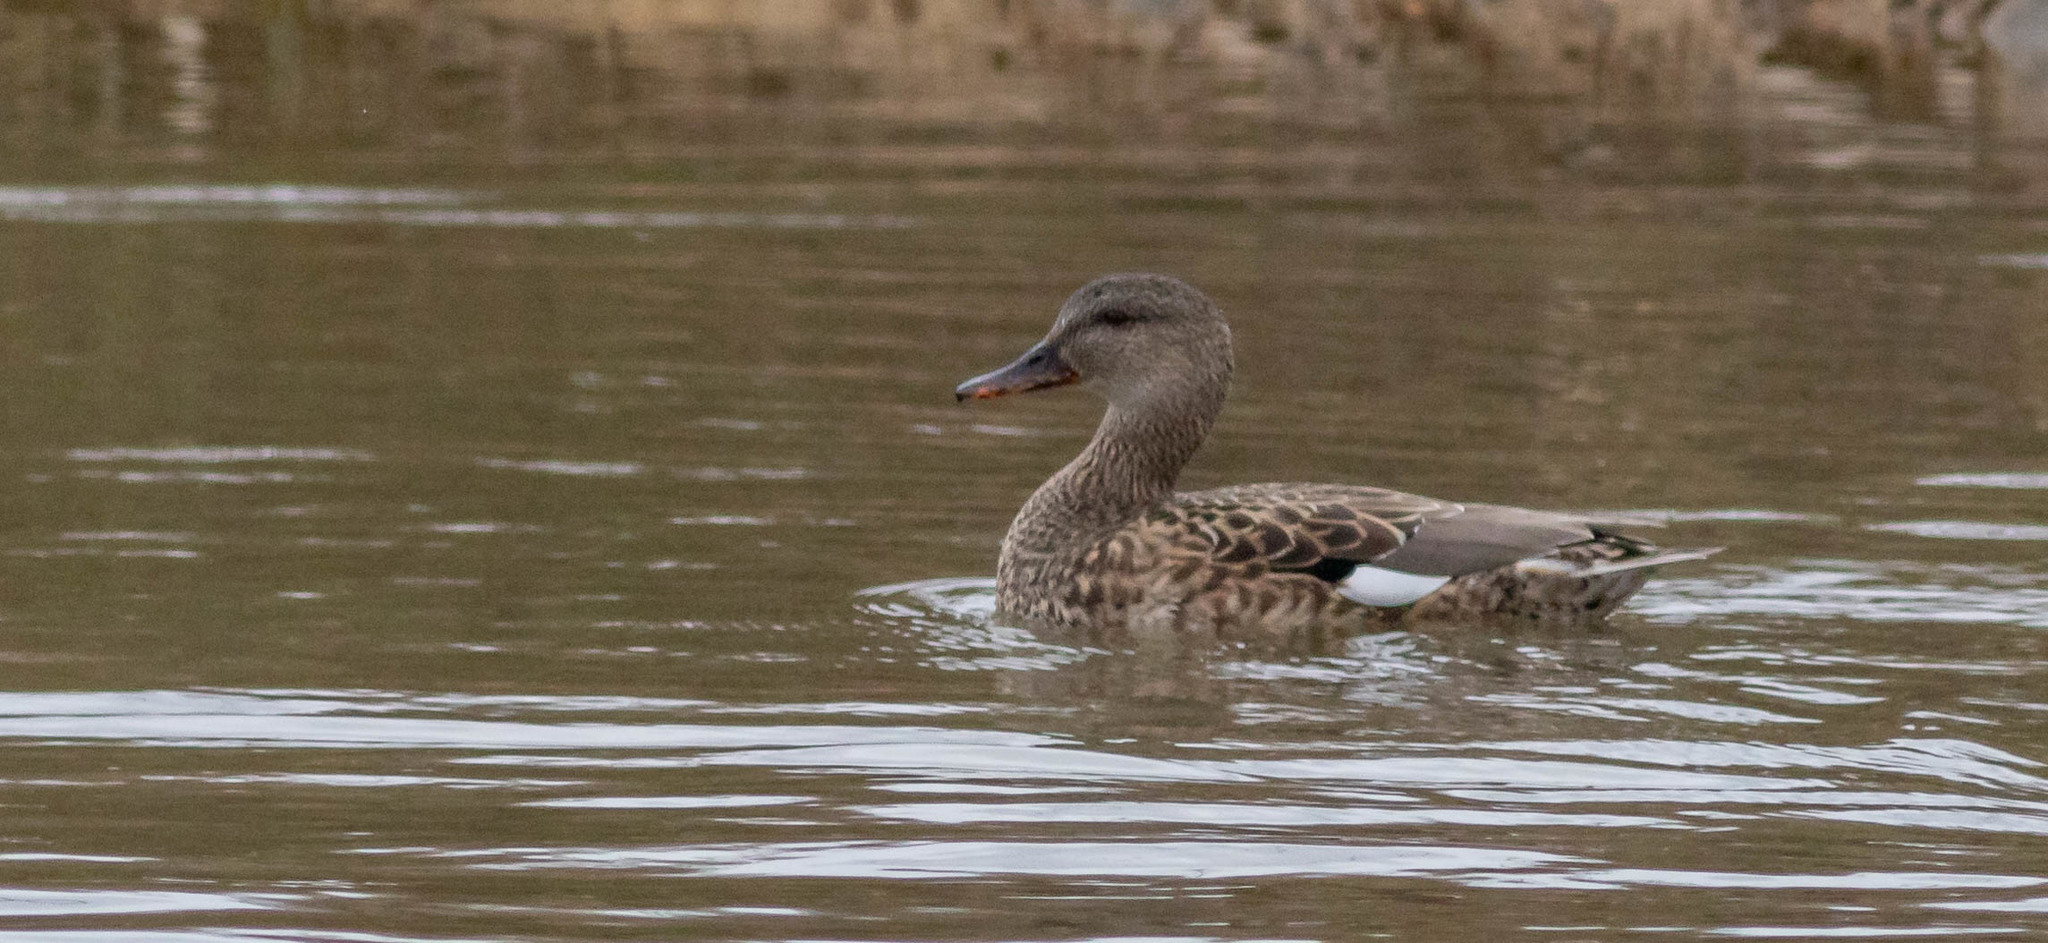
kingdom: Animalia
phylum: Chordata
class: Aves
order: Anseriformes
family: Anatidae
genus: Mareca
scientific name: Mareca strepera
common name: Gadwall
